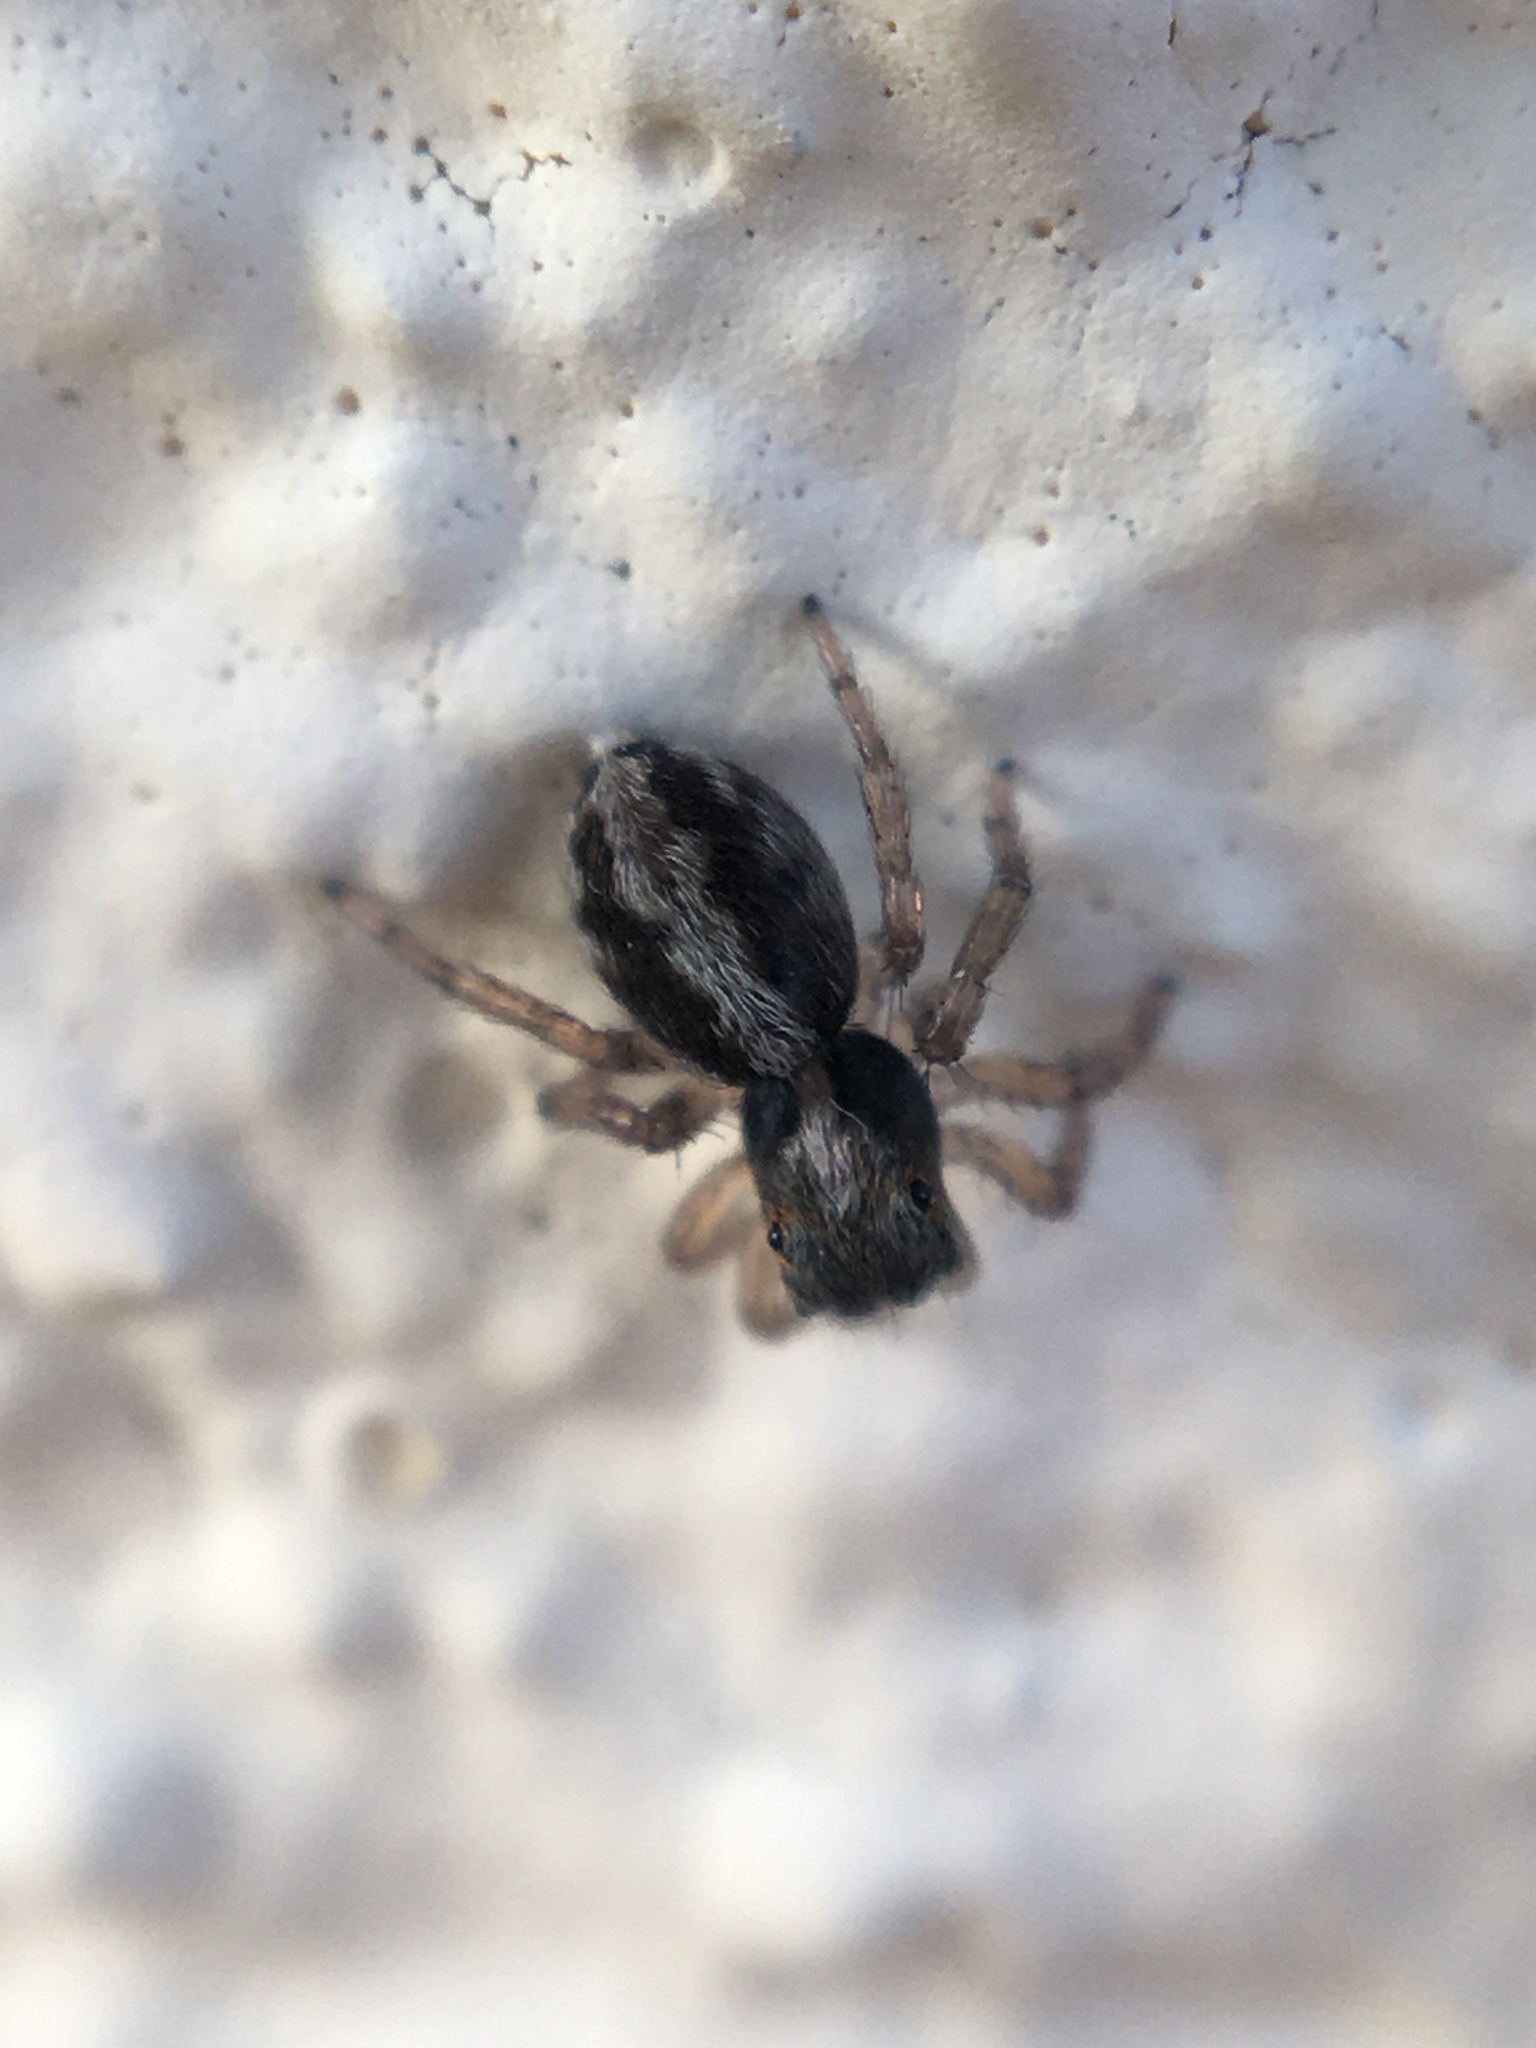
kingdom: Animalia
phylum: Arthropoda
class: Arachnida
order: Araneae
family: Salticidae
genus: Saitis
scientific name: Saitis barbipes
